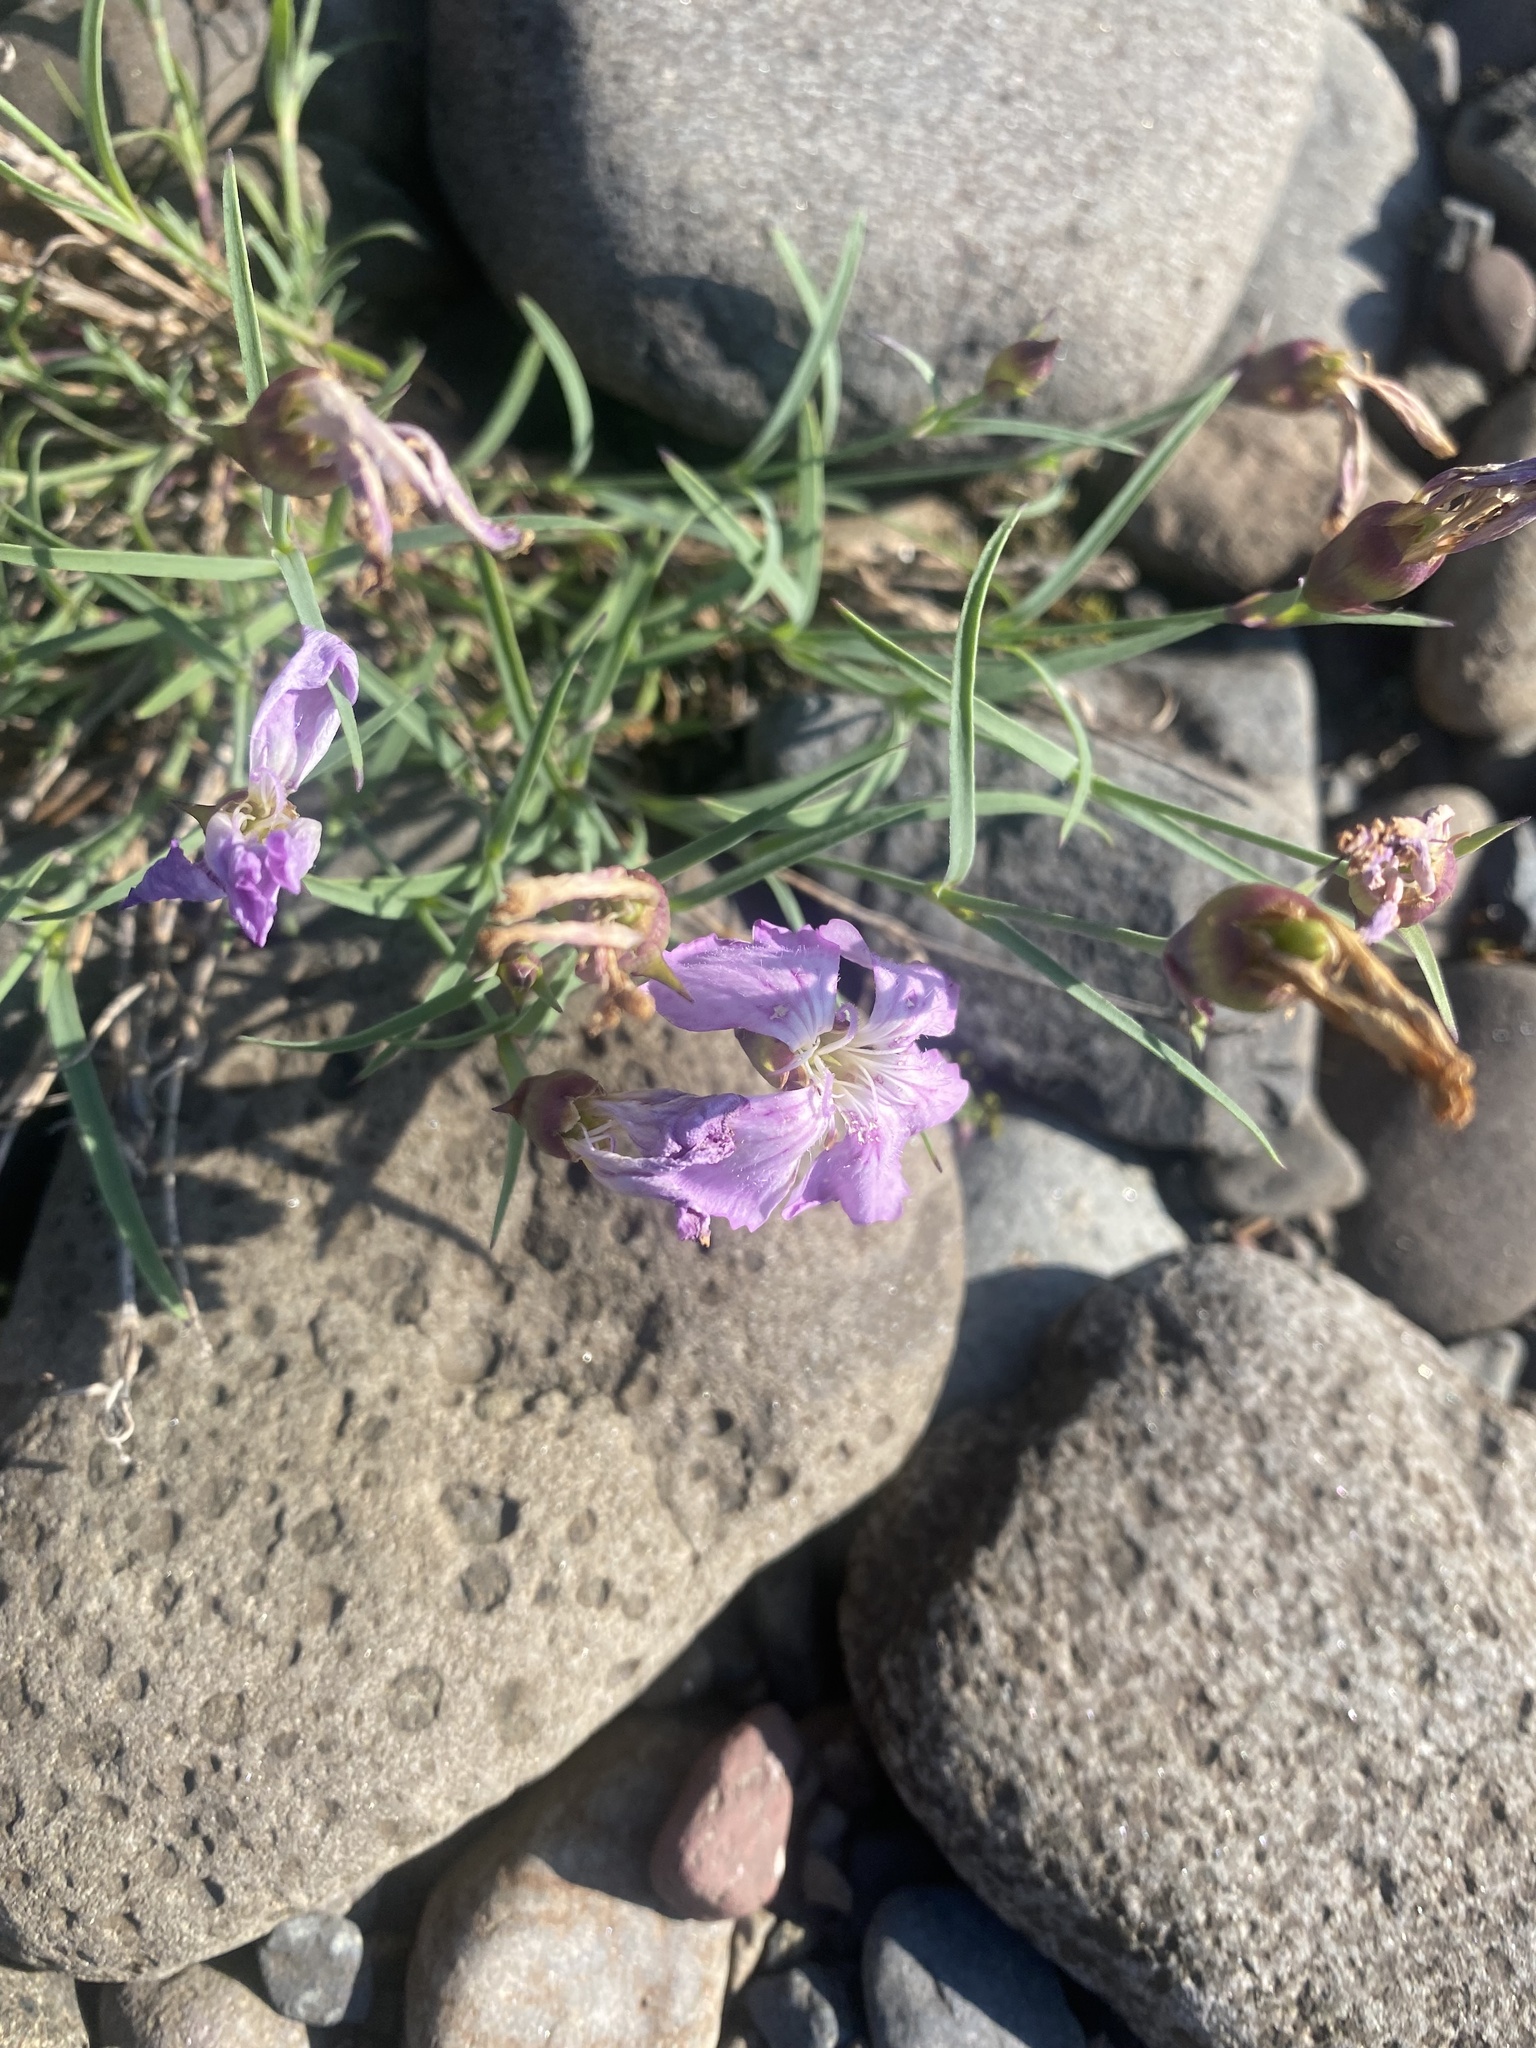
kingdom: Plantae
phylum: Tracheophyta
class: Magnoliopsida
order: Caryophyllales
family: Caryophyllaceae
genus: Dianthus
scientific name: Dianthus repens
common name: Northern pink
